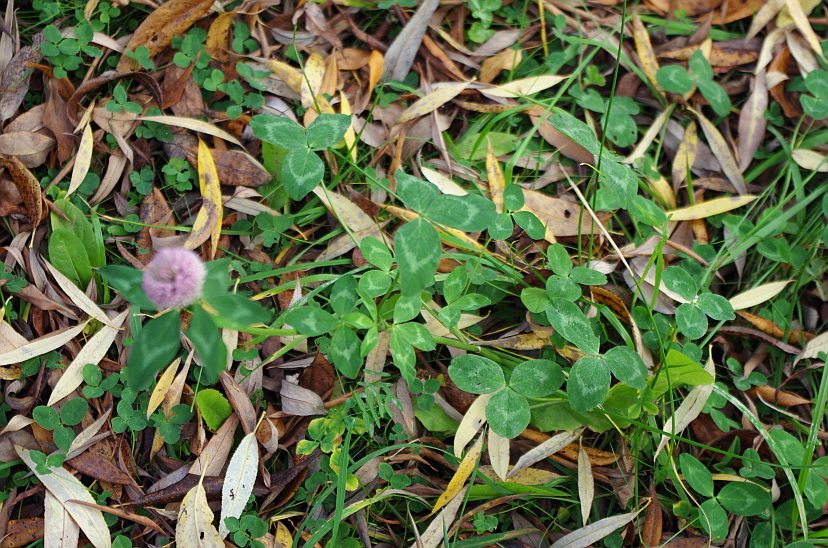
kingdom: Plantae
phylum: Tracheophyta
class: Magnoliopsida
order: Fabales
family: Fabaceae
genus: Trifolium
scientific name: Trifolium pratense
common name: Red clover
